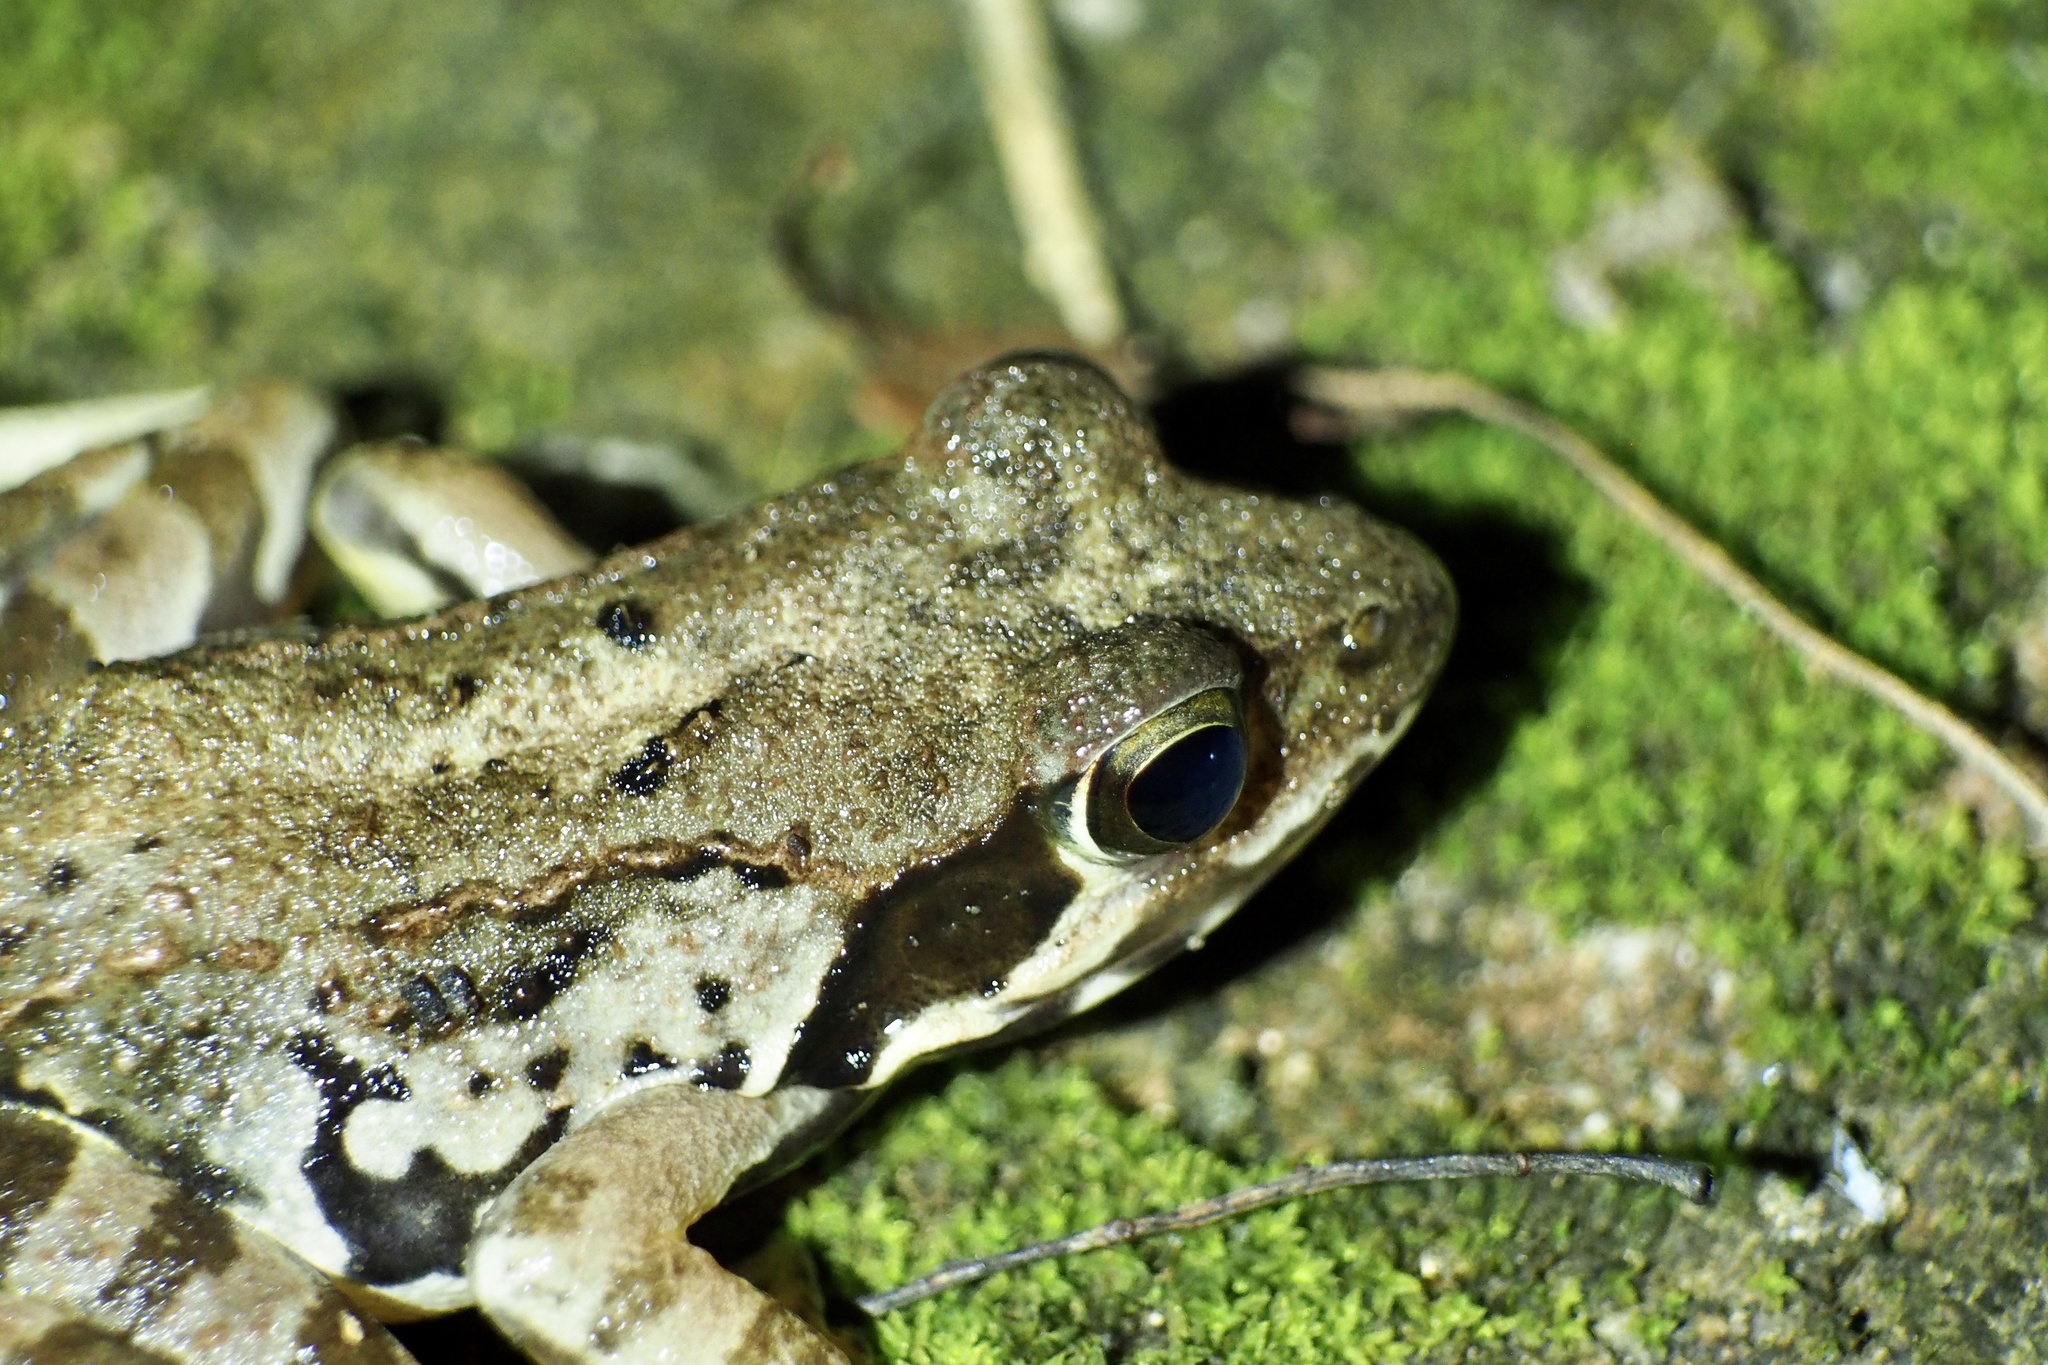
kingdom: Animalia
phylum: Chordata
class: Amphibia
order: Anura
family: Ranidae
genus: Rana
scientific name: Rana ornativentris
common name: Montane brown frog
